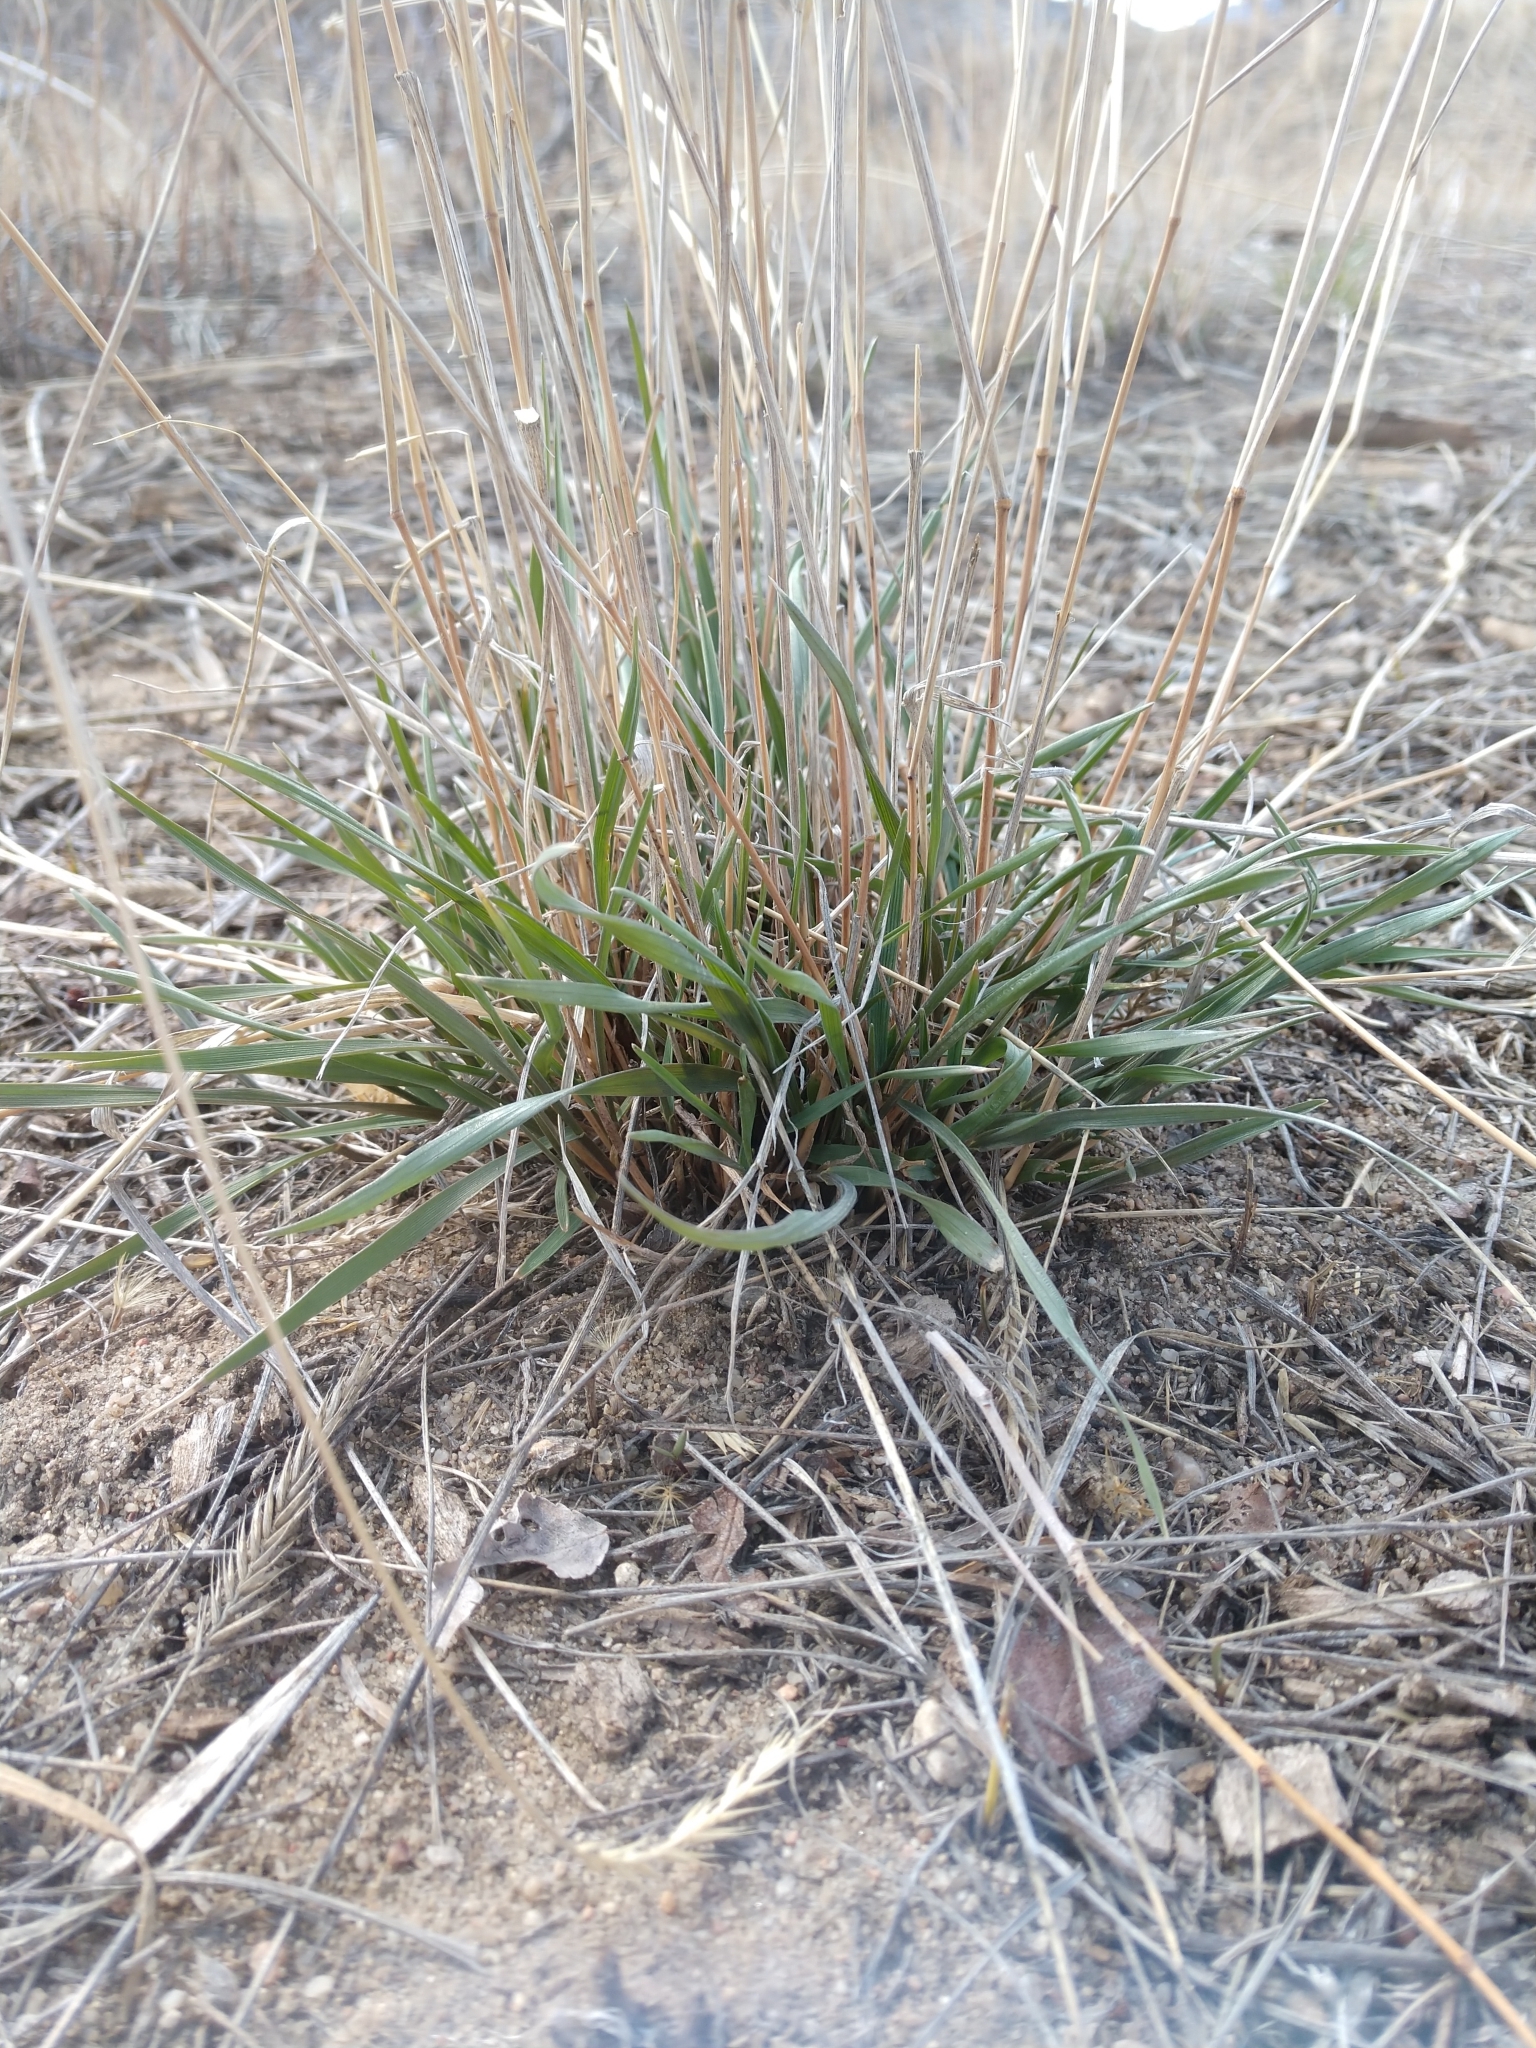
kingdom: Plantae
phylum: Tracheophyta
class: Liliopsida
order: Poales
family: Poaceae
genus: Agropyron
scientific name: Agropyron cristatum
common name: Crested wheatgrass
